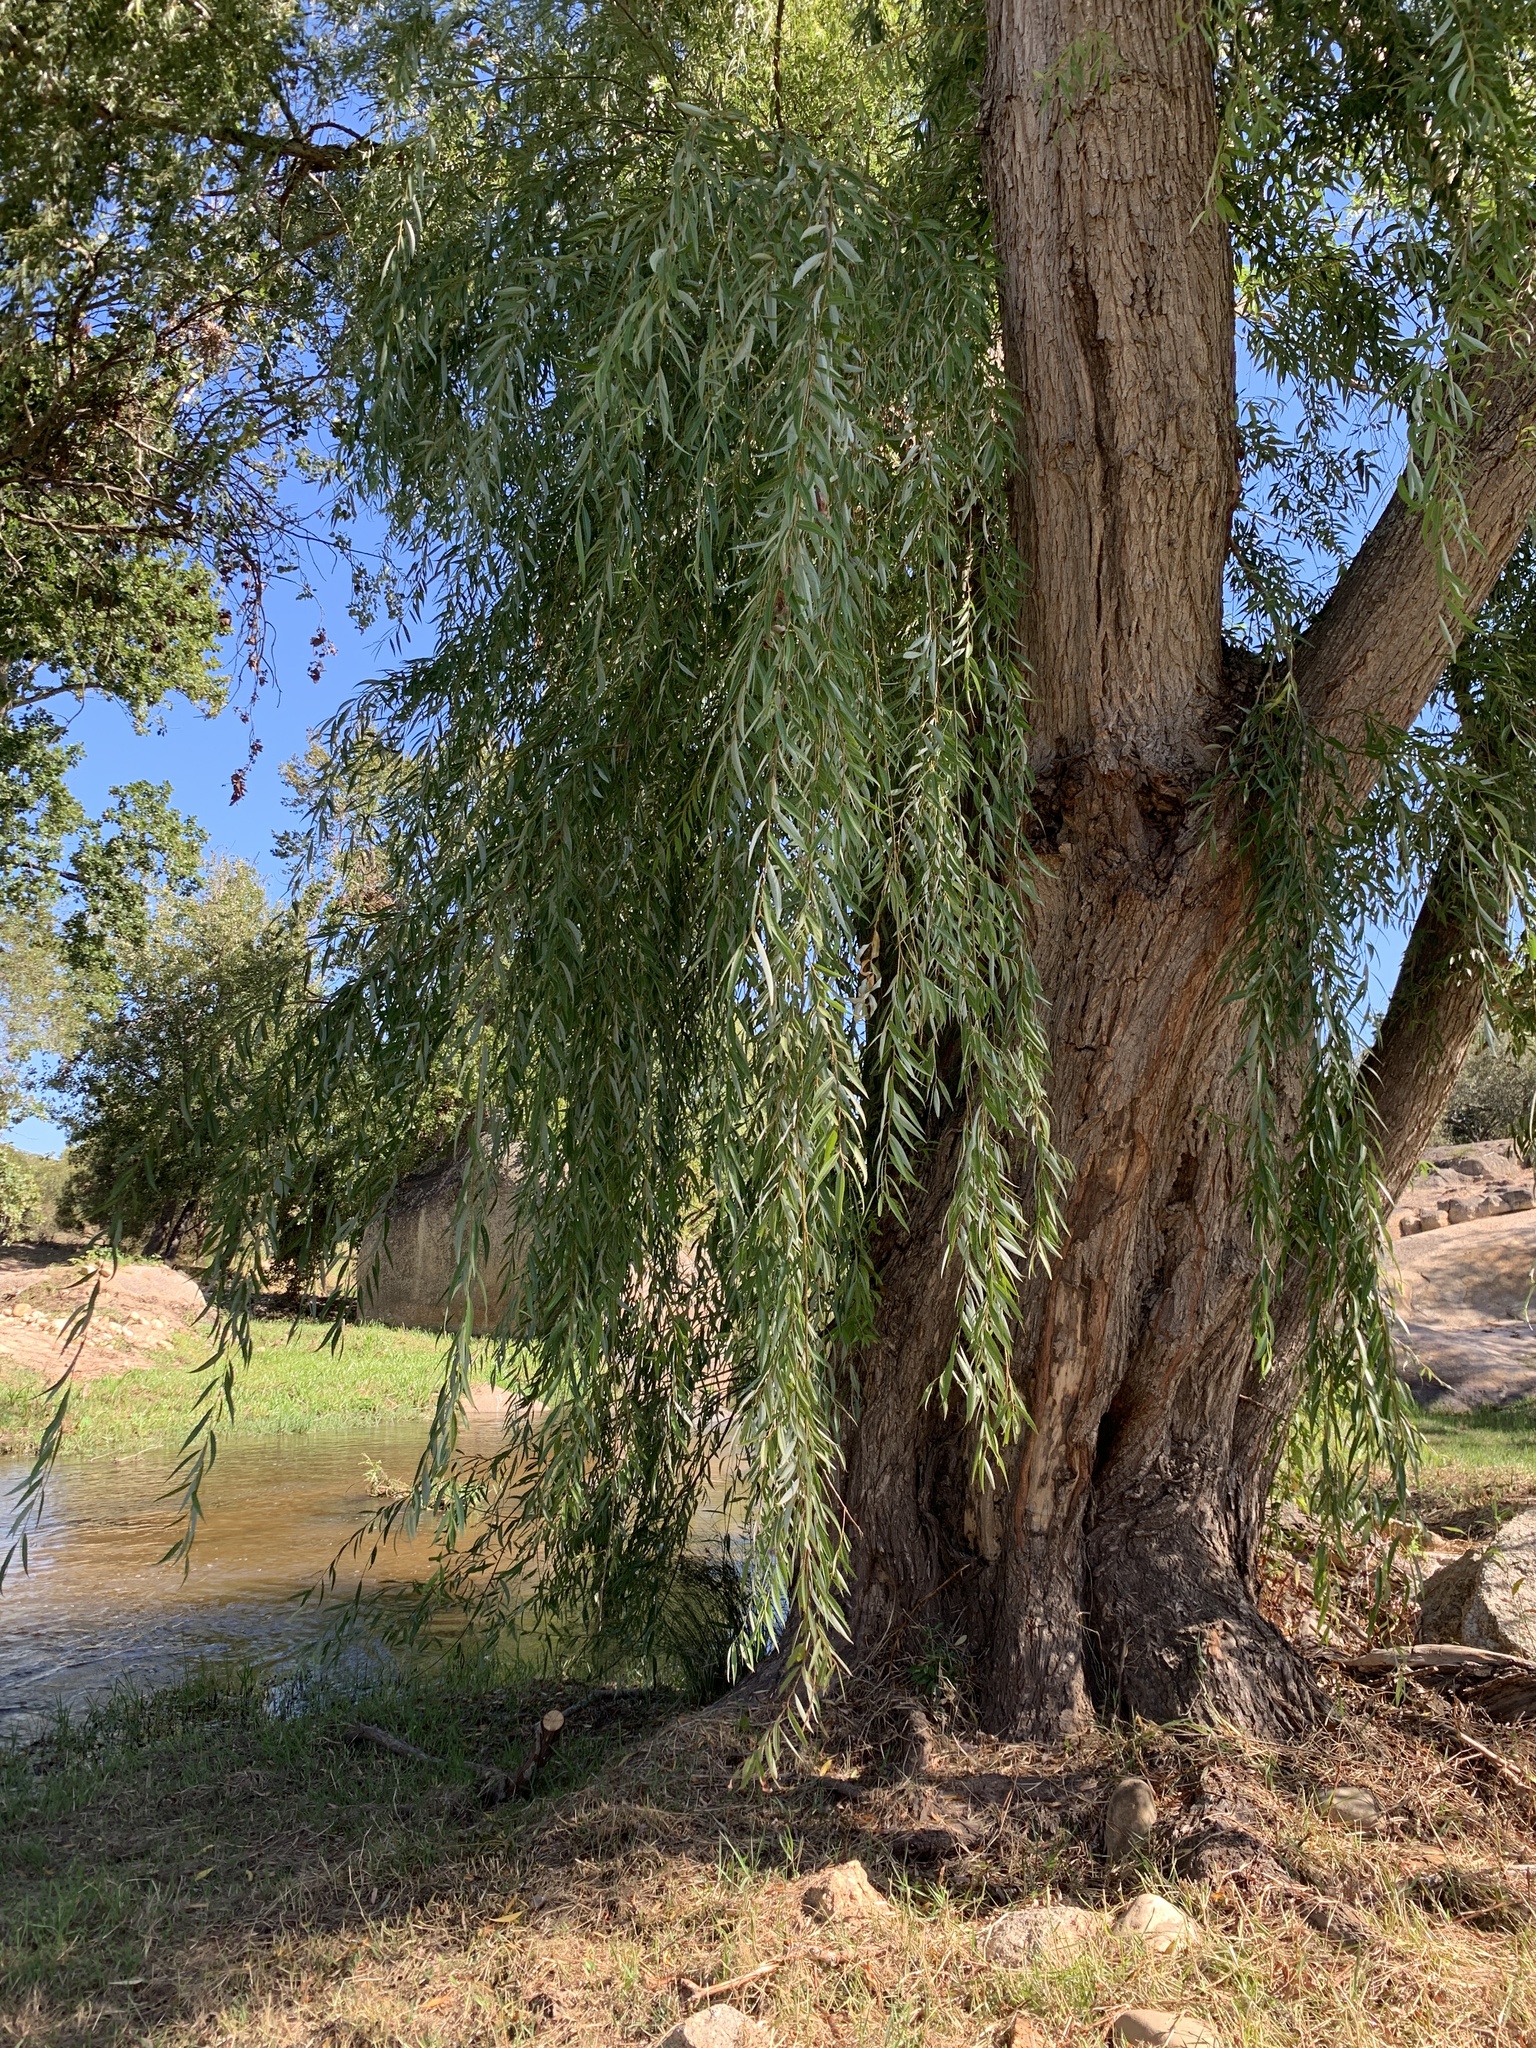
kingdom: Plantae
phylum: Tracheophyta
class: Magnoliopsida
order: Malpighiales
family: Salicaceae
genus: Salix
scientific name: Salix babylonica
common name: Weeping willow
